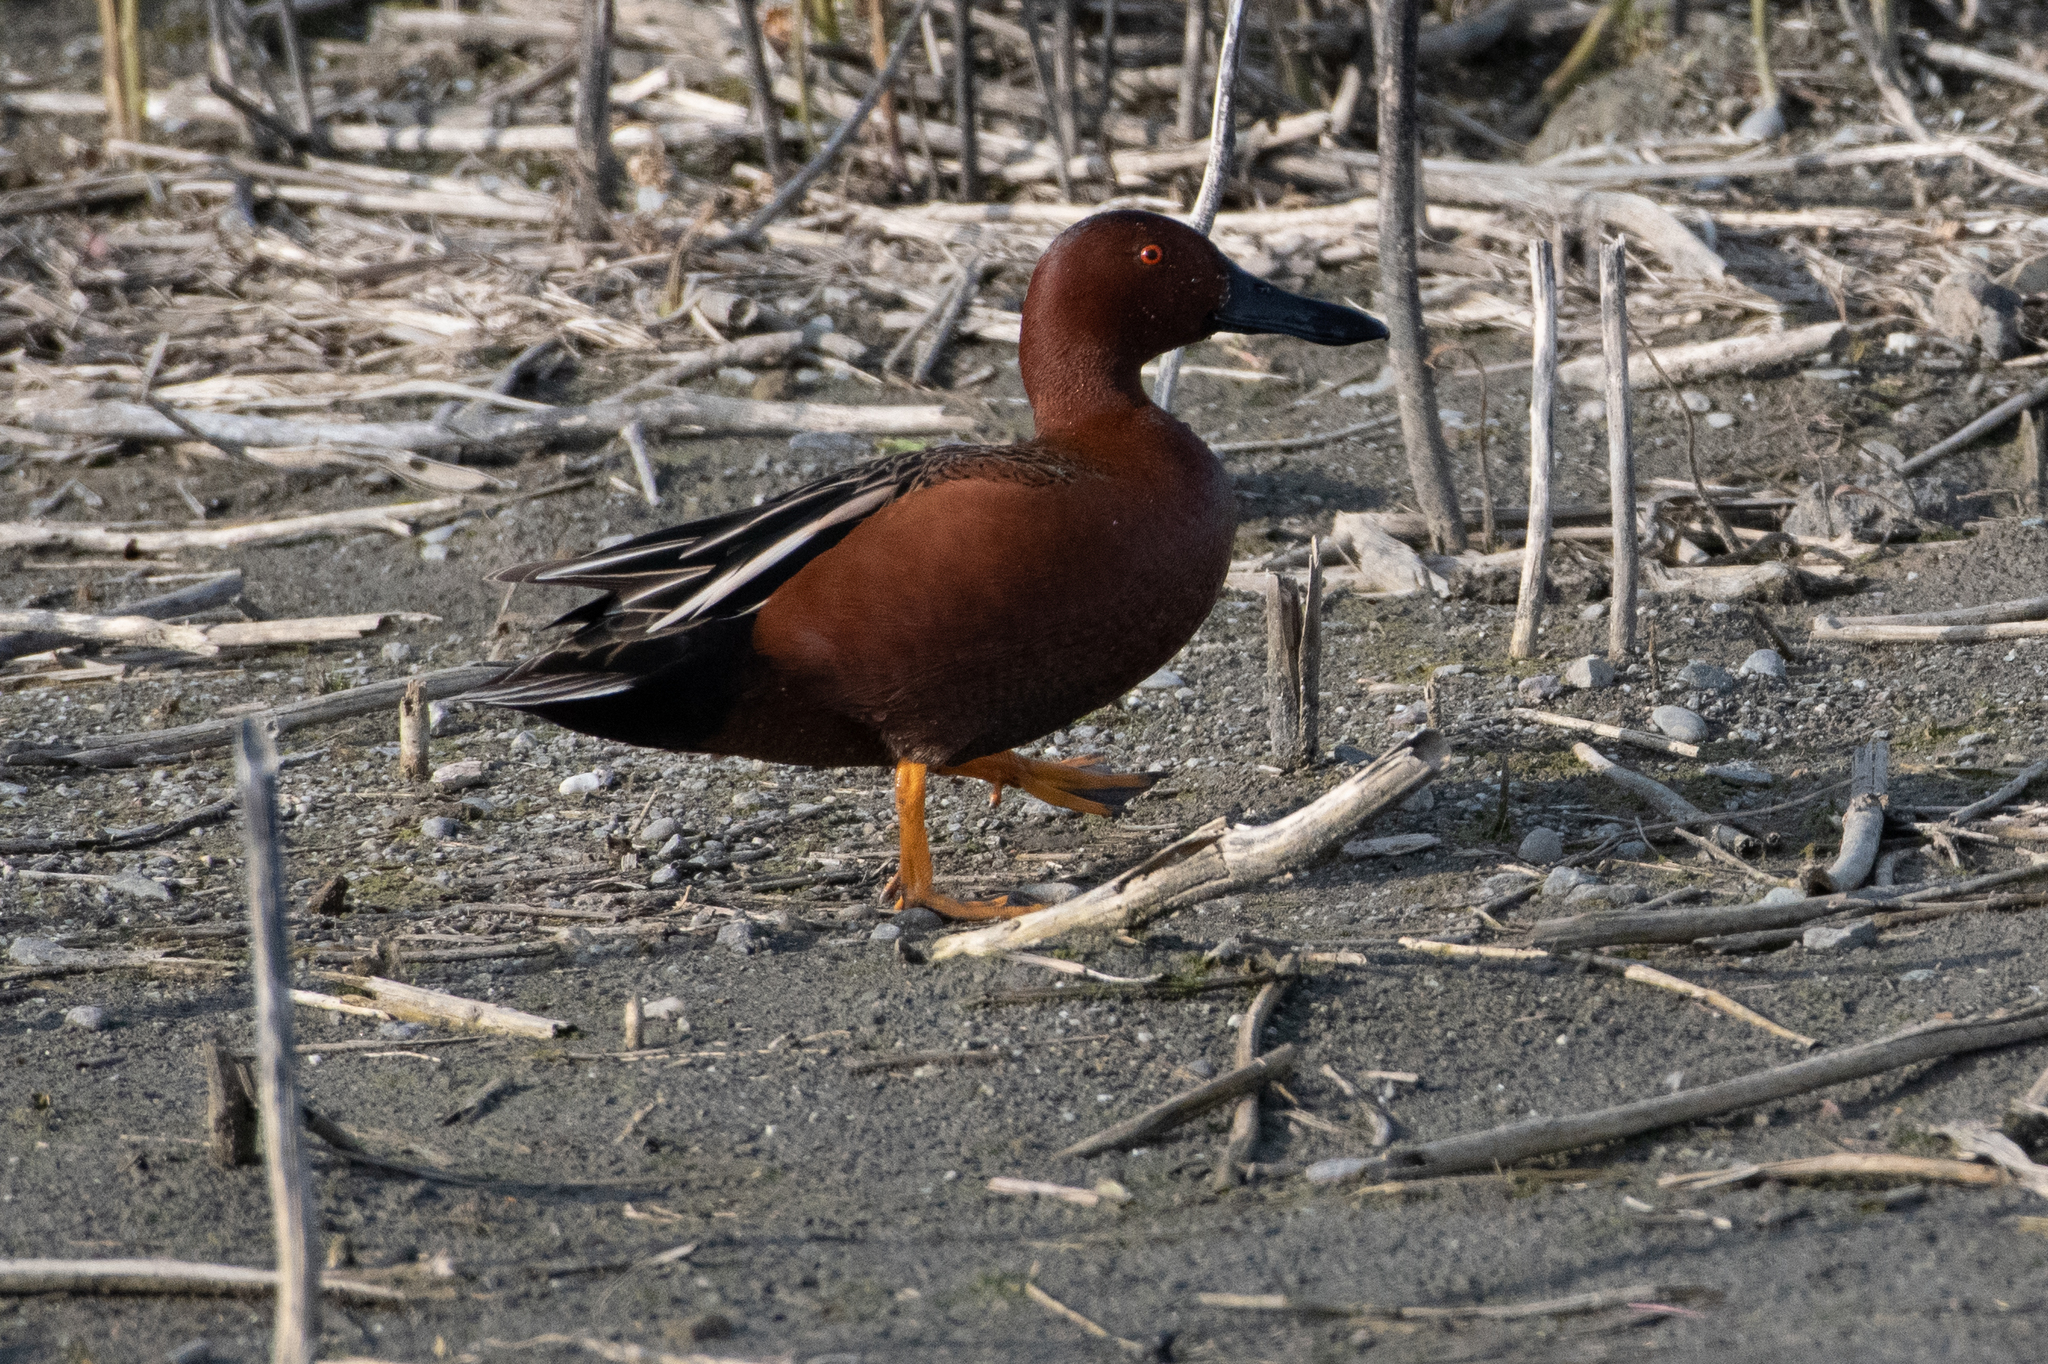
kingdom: Animalia
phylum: Chordata
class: Aves
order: Anseriformes
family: Anatidae
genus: Spatula
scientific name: Spatula cyanoptera
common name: Cinnamon teal
